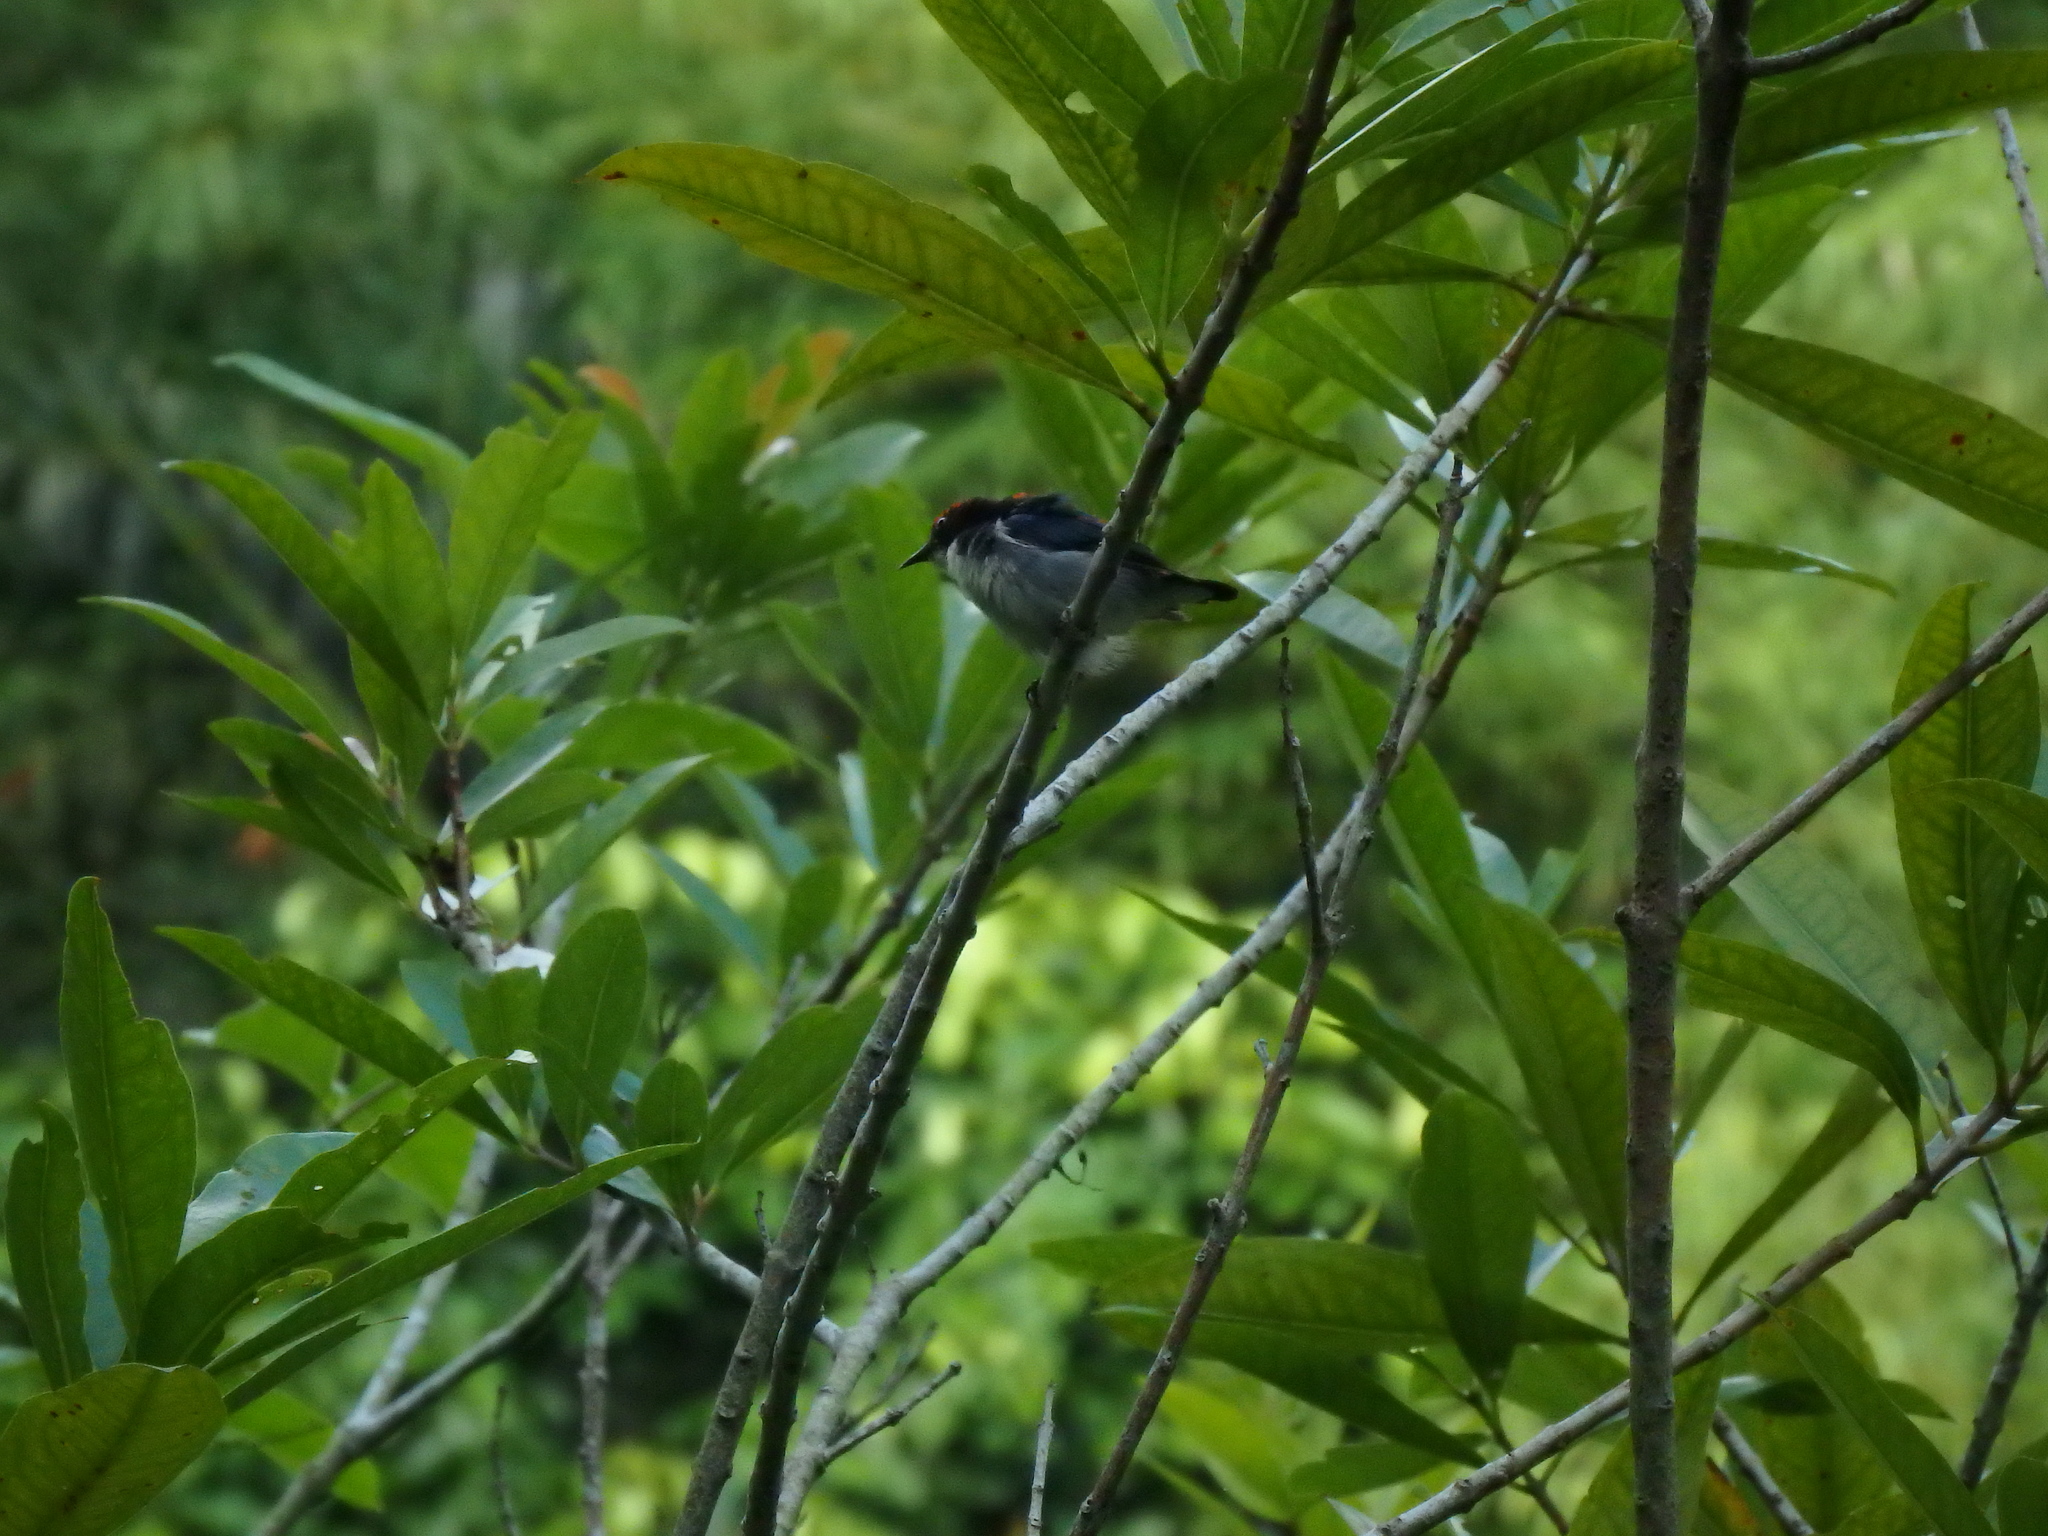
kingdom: Animalia
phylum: Chordata
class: Aves
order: Passeriformes
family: Dicaeidae
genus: Dicaeum
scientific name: Dicaeum cruentatum
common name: Scarlet-backed flowerpecker
